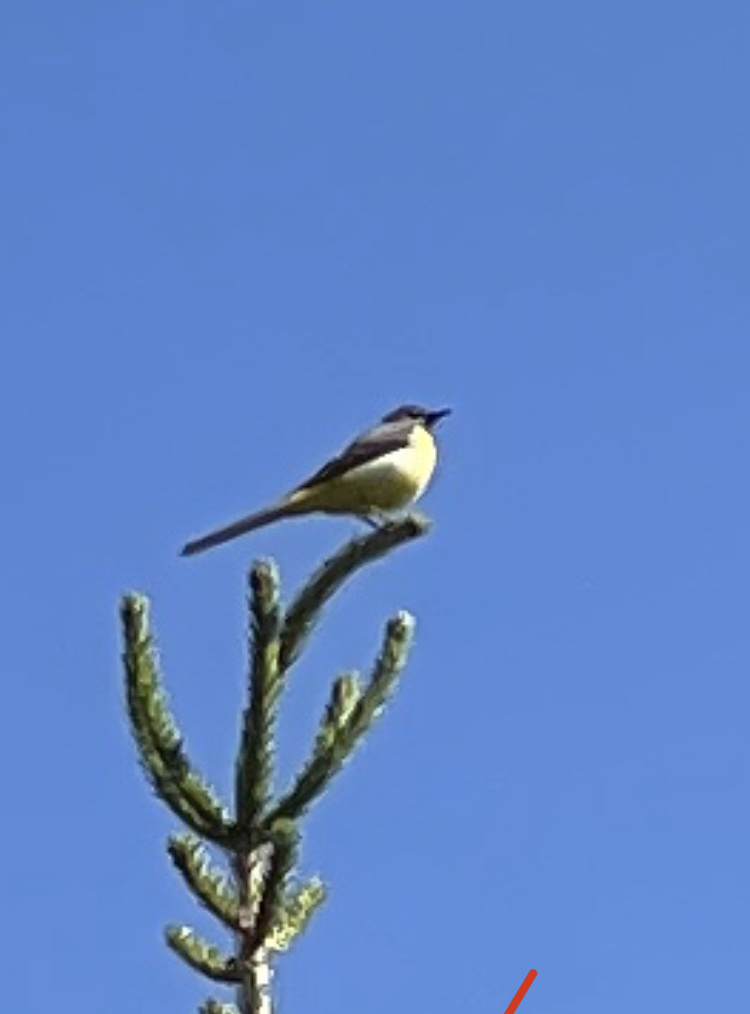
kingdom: Animalia
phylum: Chordata
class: Aves
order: Passeriformes
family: Motacillidae
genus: Motacilla
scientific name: Motacilla cinerea
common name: Grey wagtail
